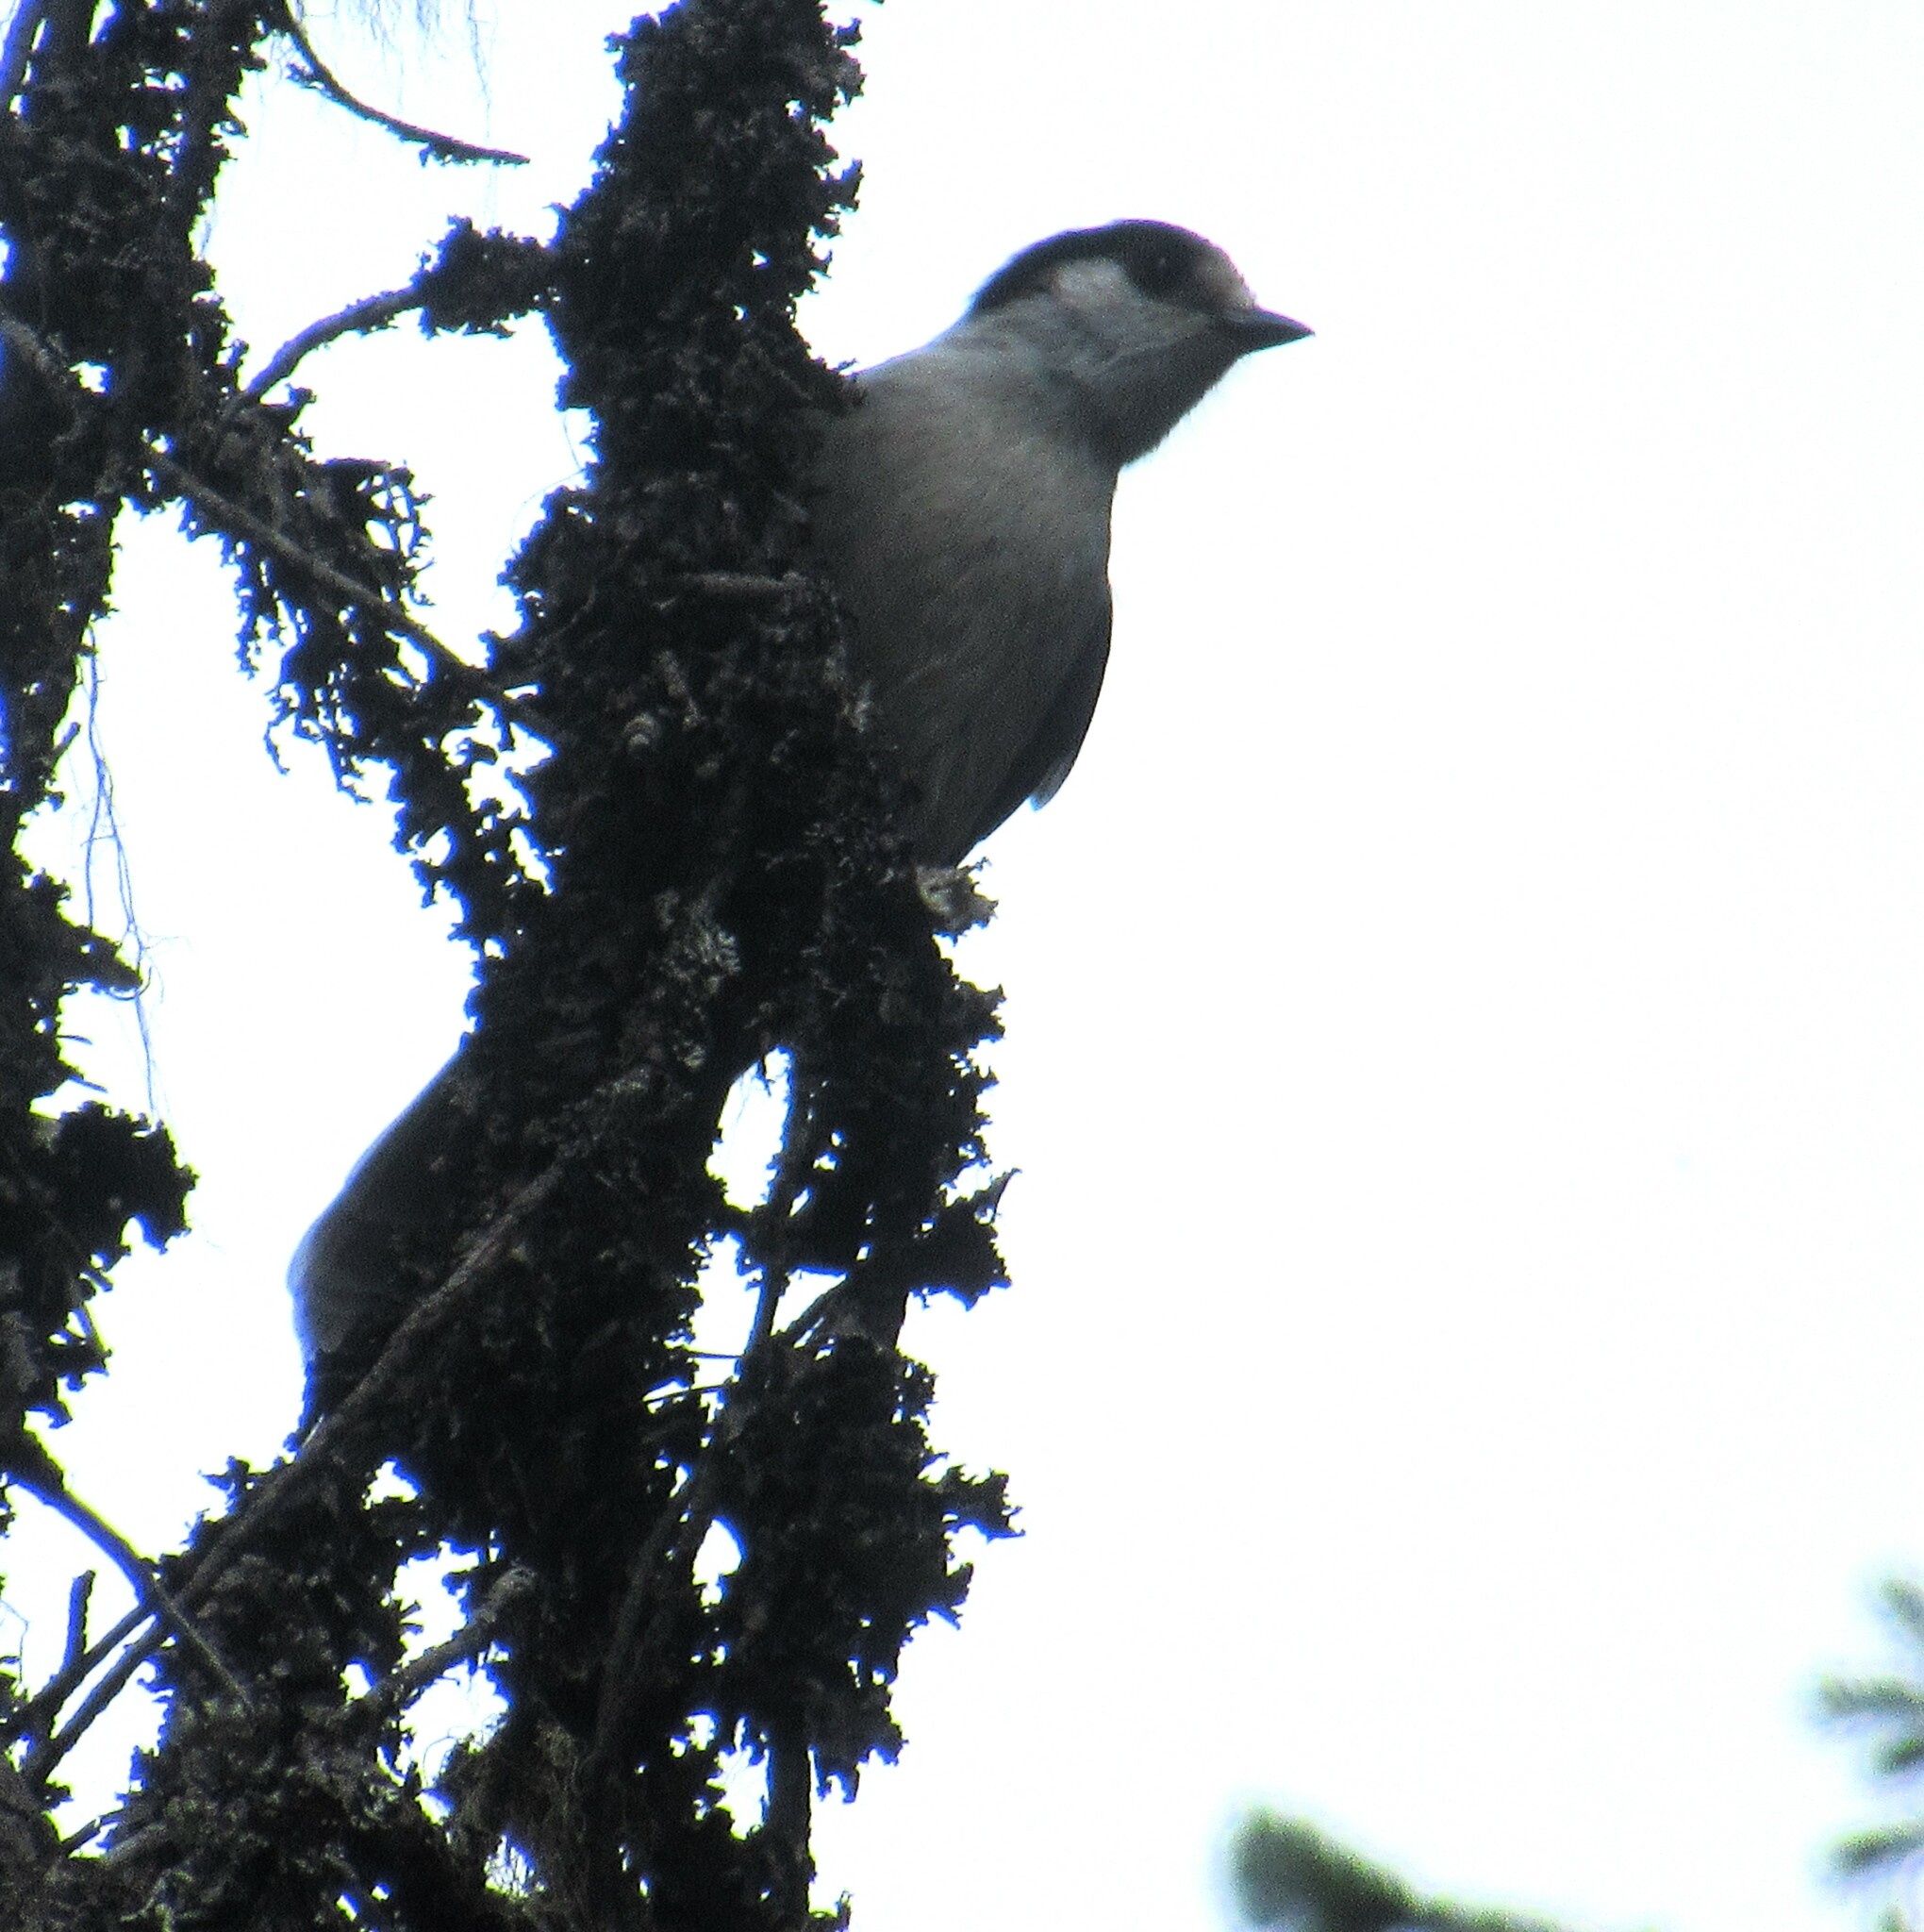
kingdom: Animalia
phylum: Chordata
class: Aves
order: Passeriformes
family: Corvidae
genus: Perisoreus
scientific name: Perisoreus canadensis
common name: Gray jay
